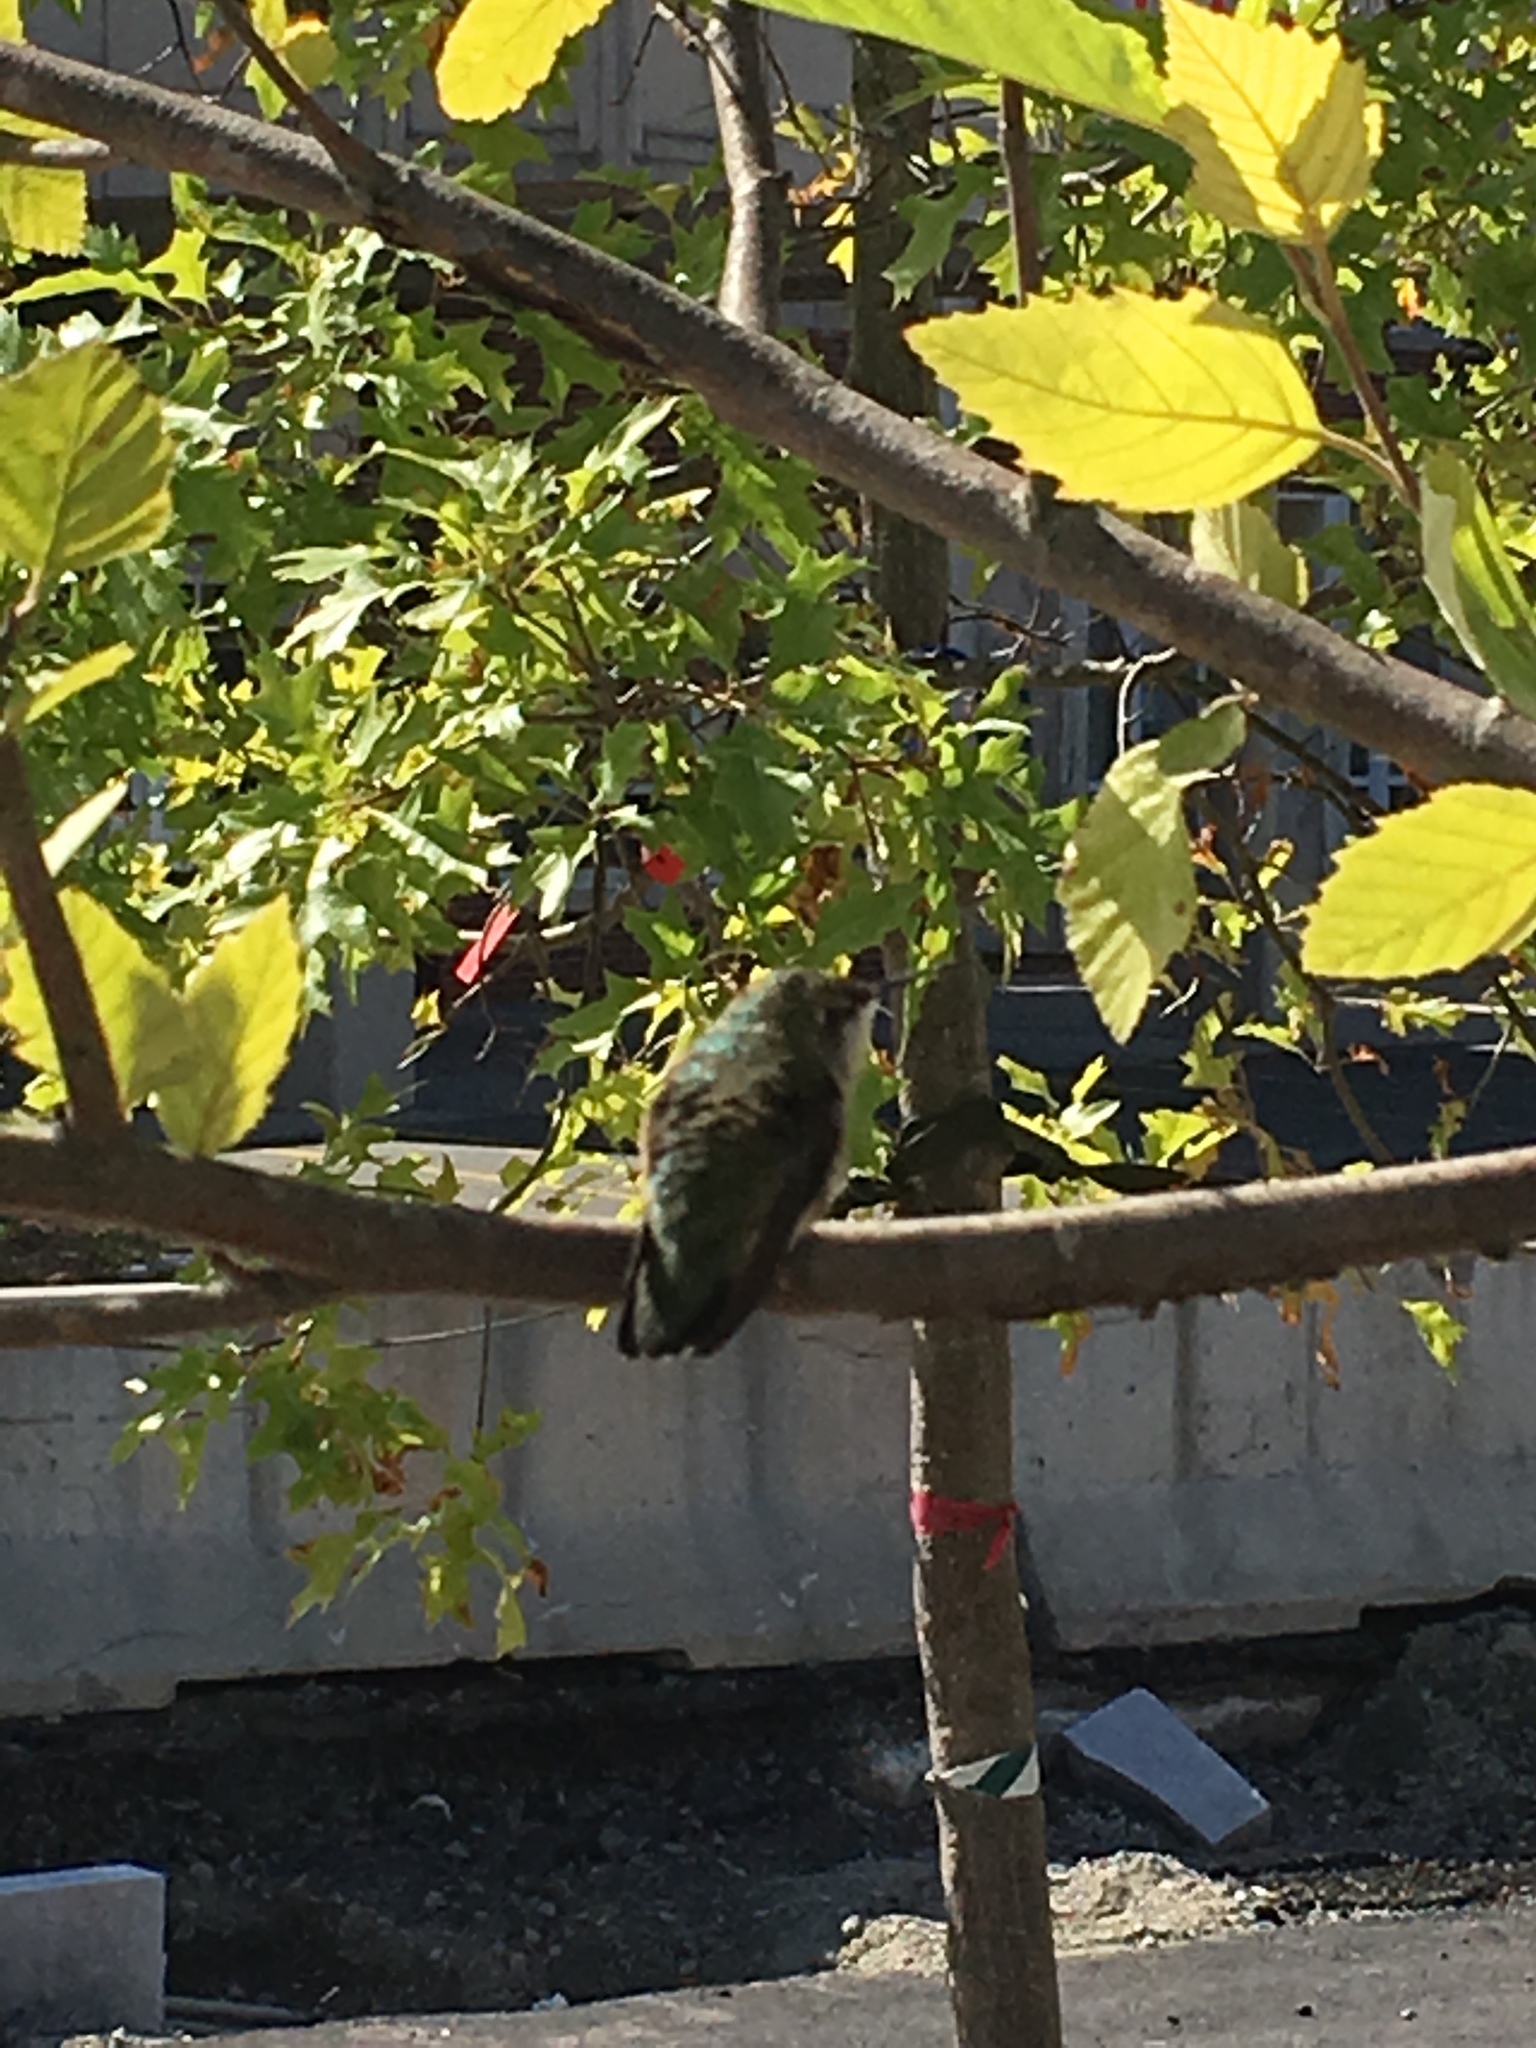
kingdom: Animalia
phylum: Chordata
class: Aves
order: Apodiformes
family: Trochilidae
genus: Archilochus
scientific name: Archilochus colubris
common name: Ruby-throated hummingbird
